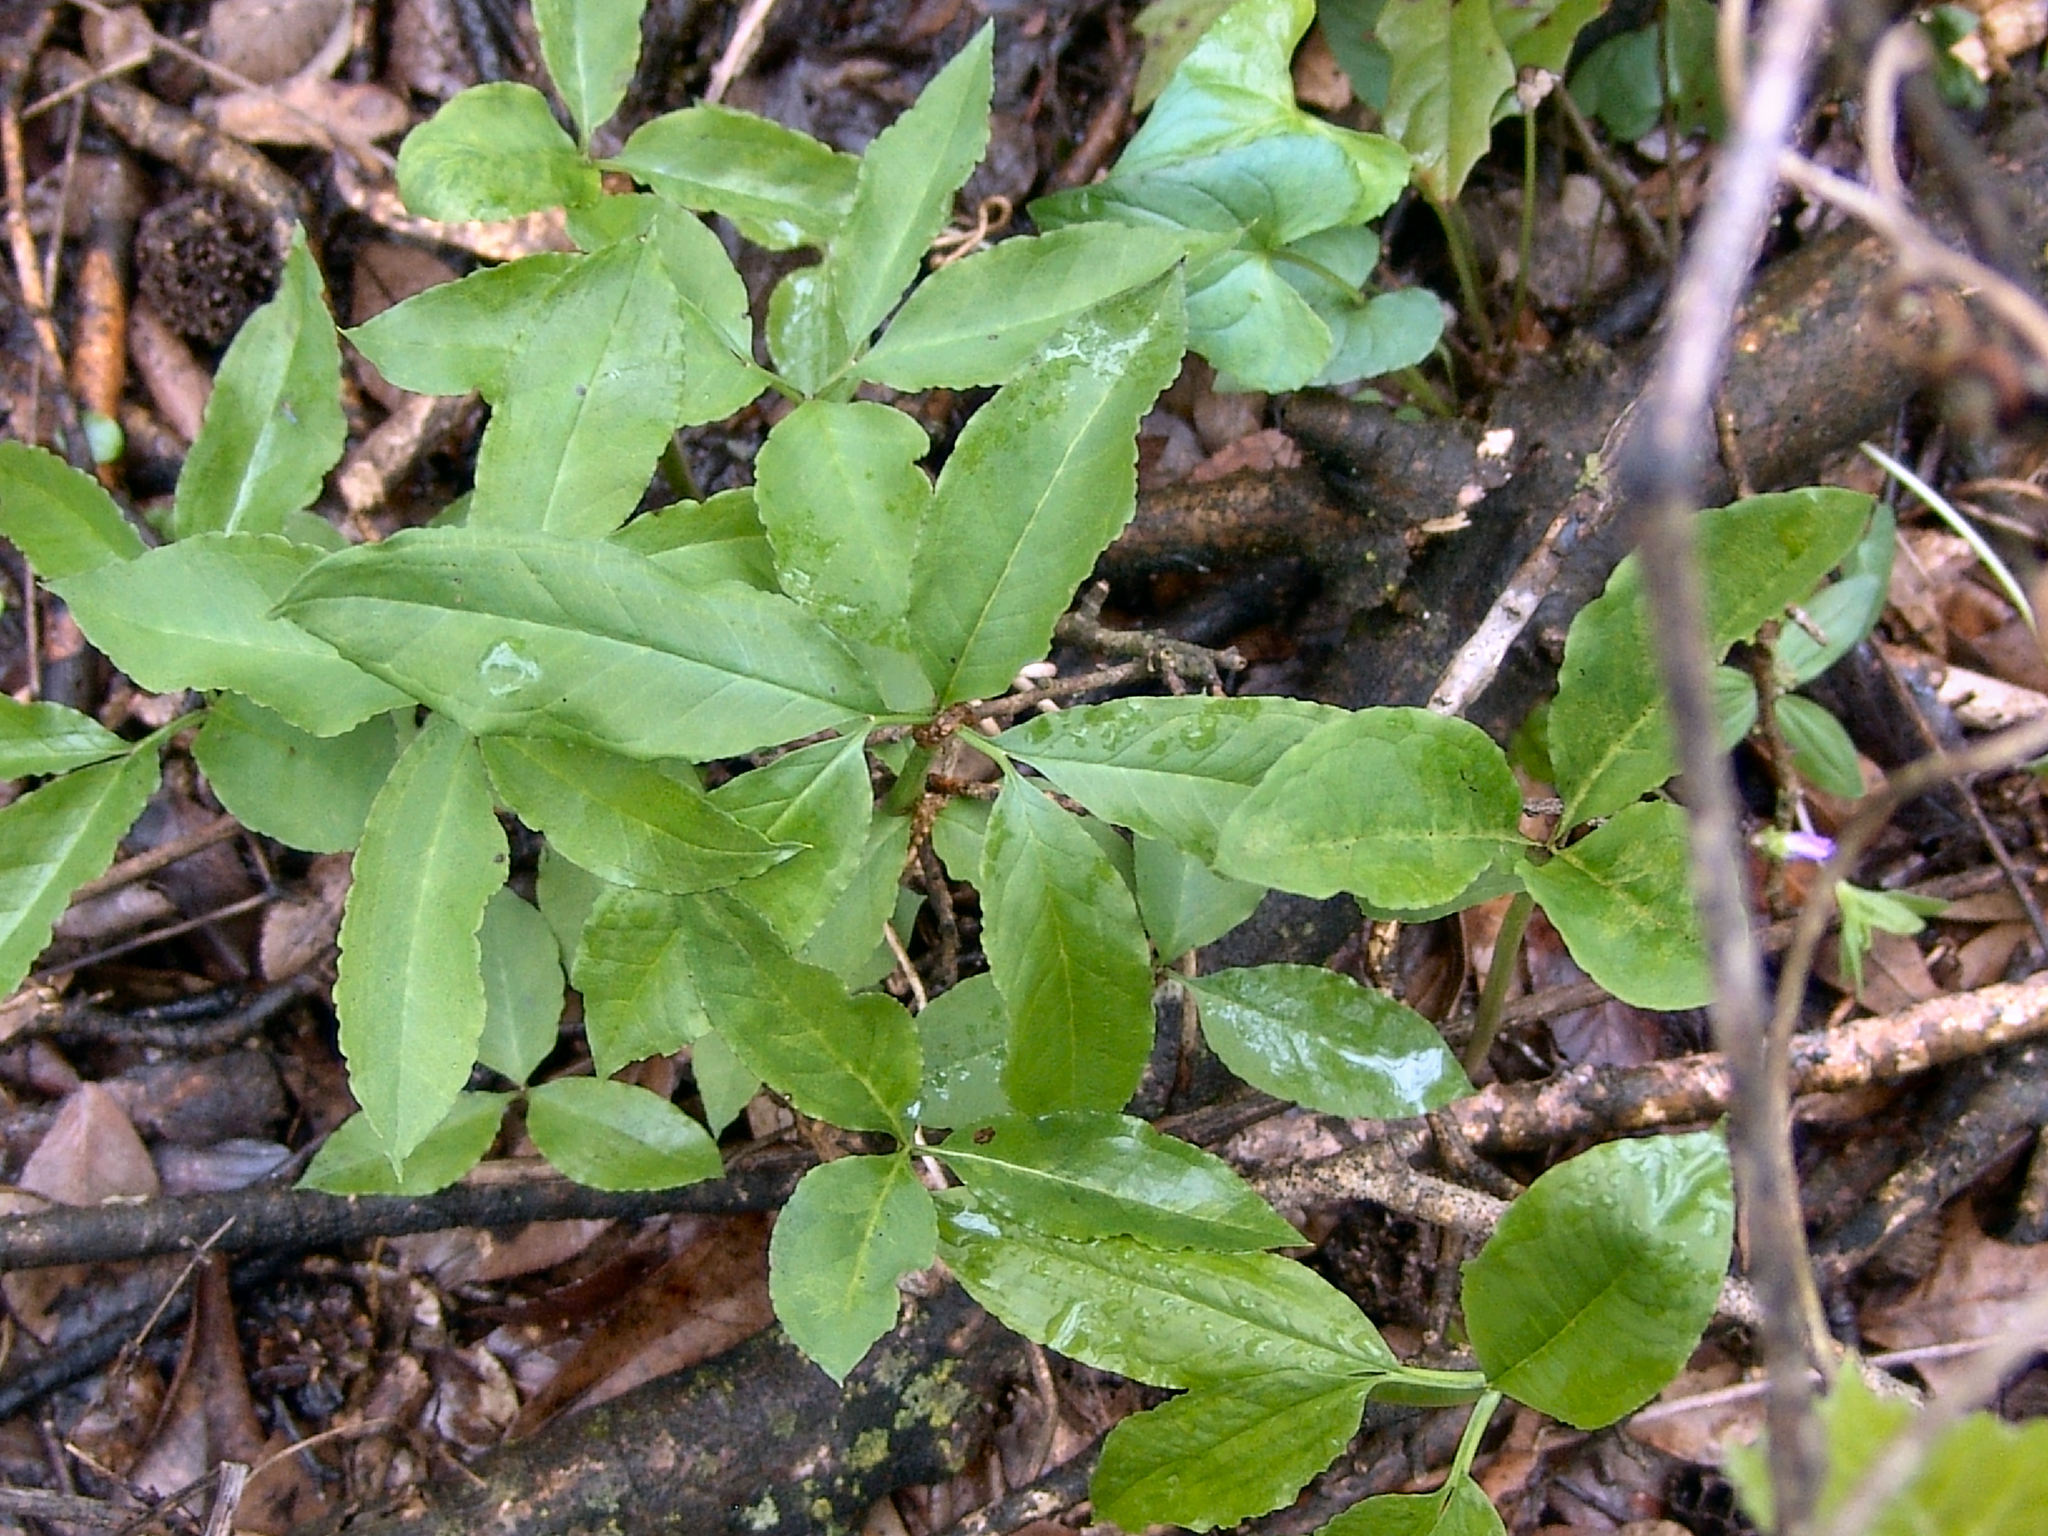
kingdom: Plantae
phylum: Tracheophyta
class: Liliopsida
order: Alismatales
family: Araceae
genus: Arisaema
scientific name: Arisaema dracontium
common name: Dragon-arum
